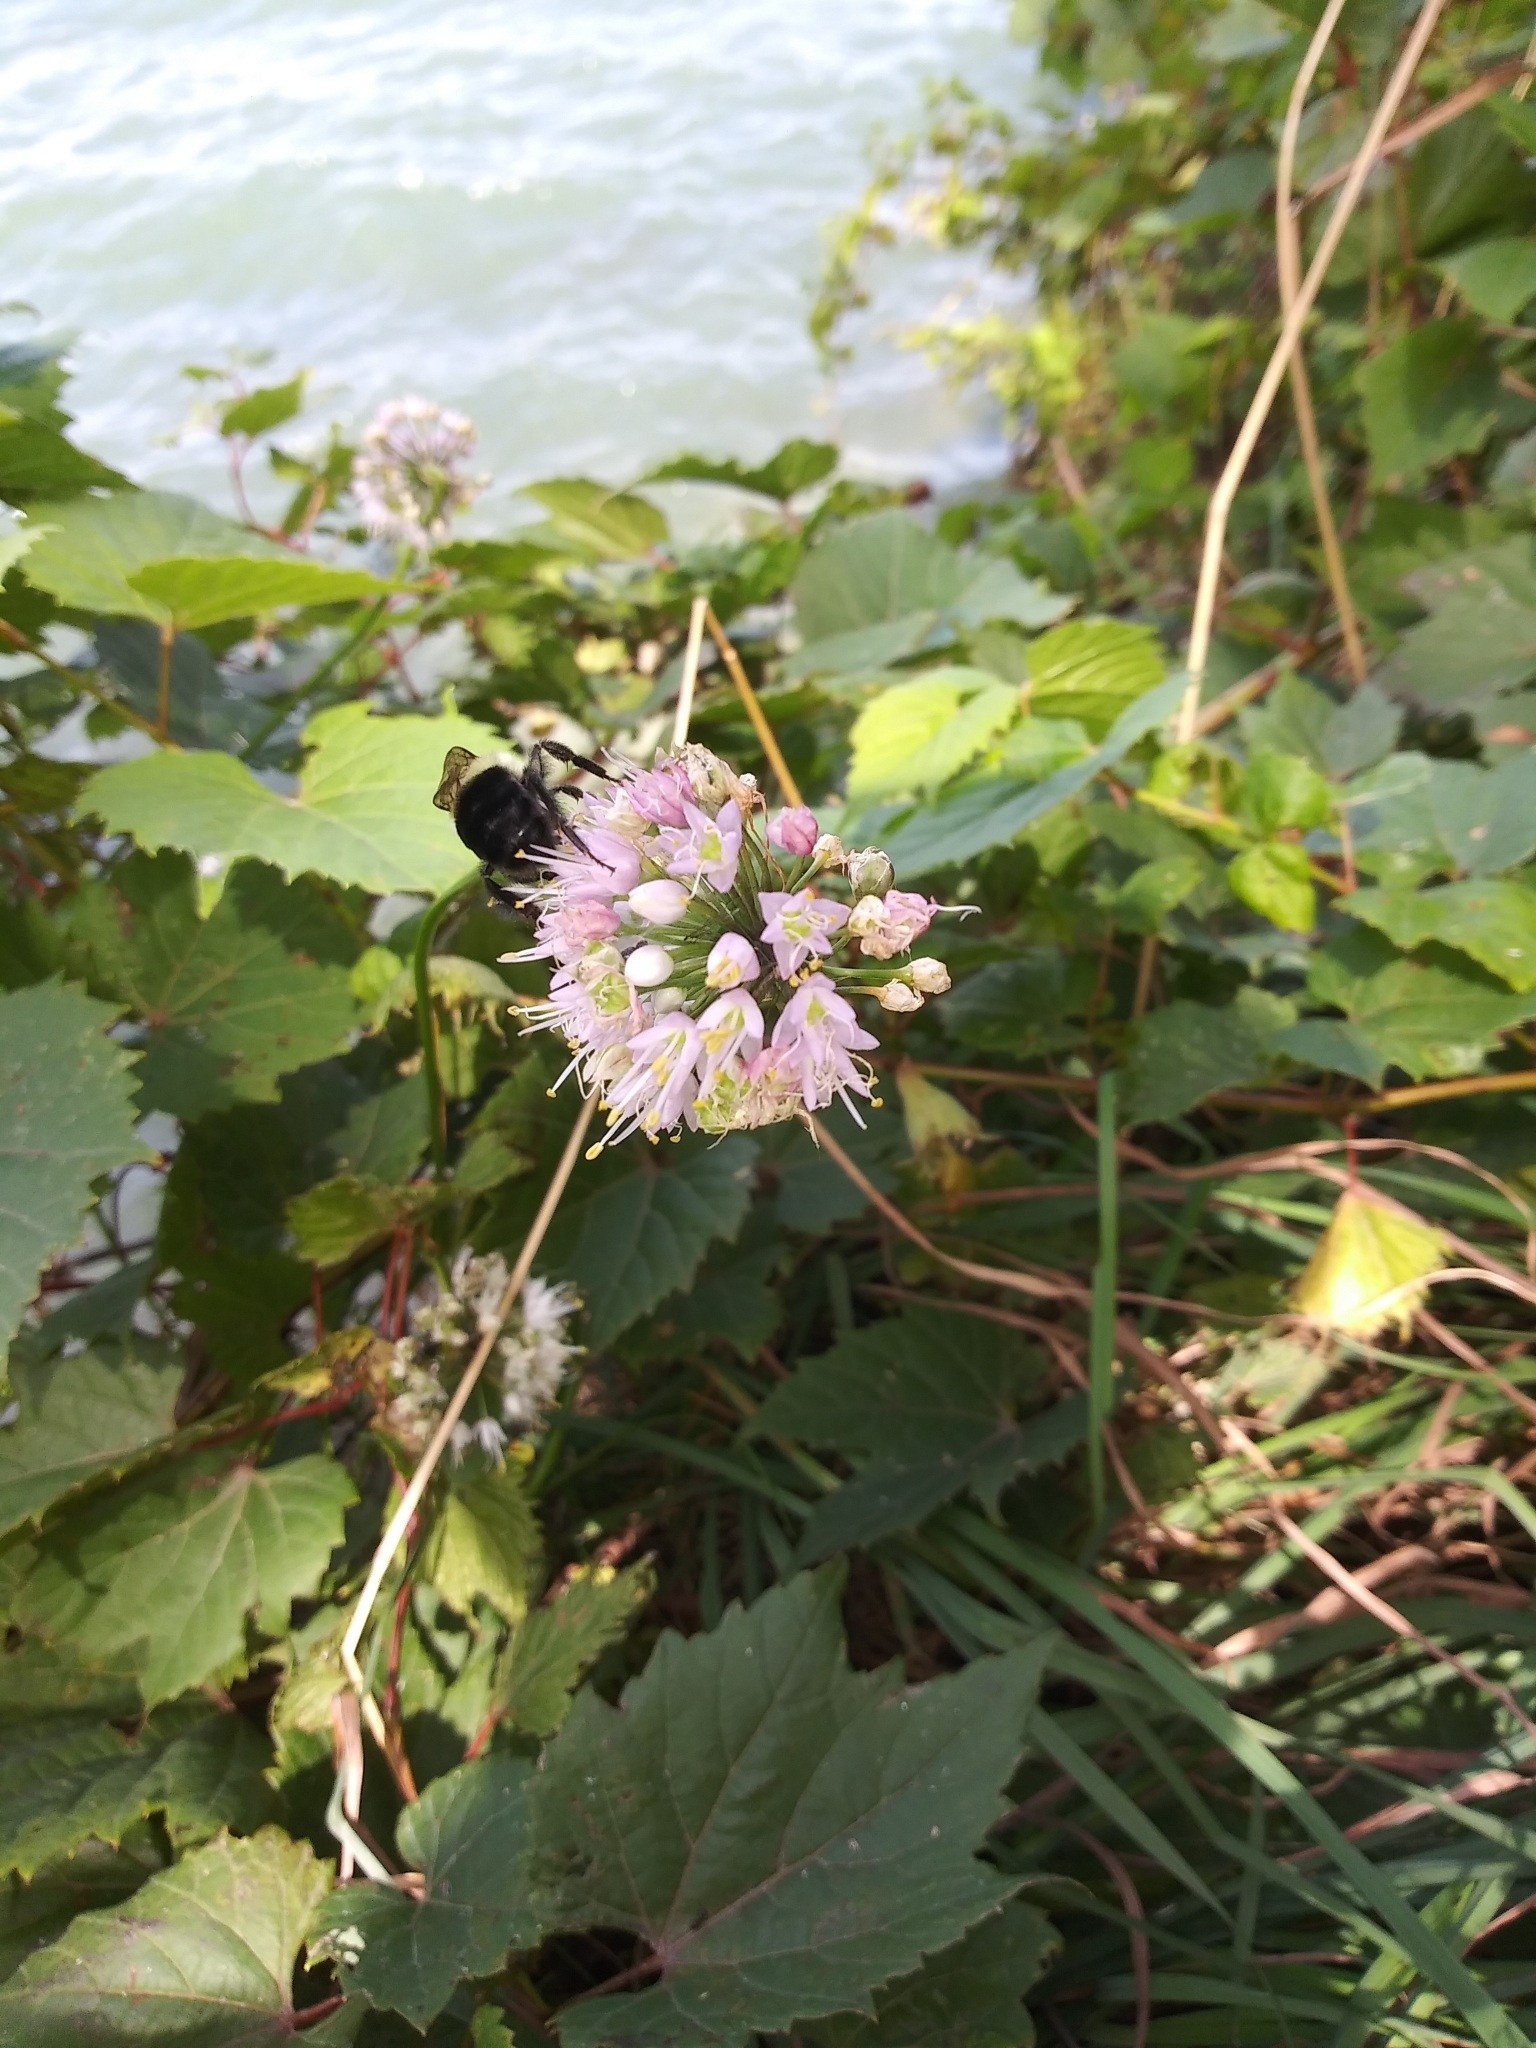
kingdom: Plantae
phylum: Tracheophyta
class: Liliopsida
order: Asparagales
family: Amaryllidaceae
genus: Allium
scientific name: Allium cernuum
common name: Nodding onion
